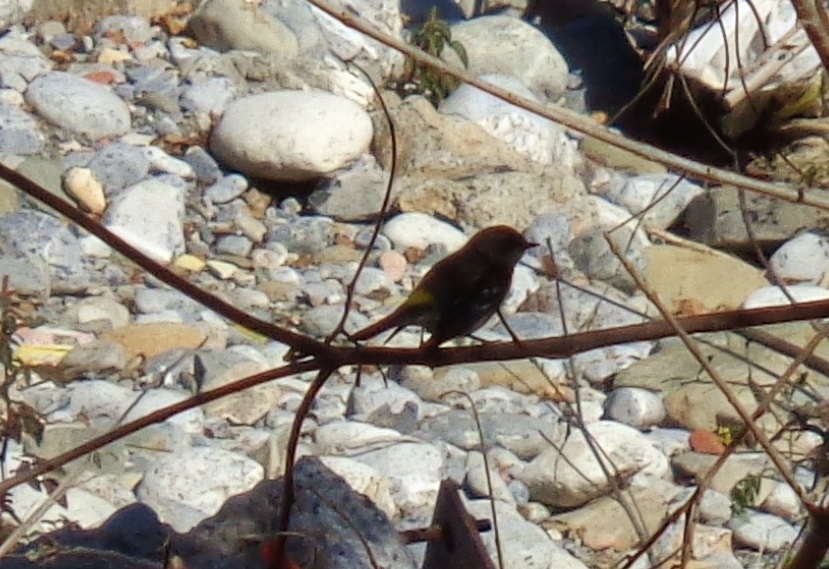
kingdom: Animalia
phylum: Chordata
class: Aves
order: Passeriformes
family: Parulidae
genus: Setophaga
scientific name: Setophaga coronata
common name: Myrtle warbler
